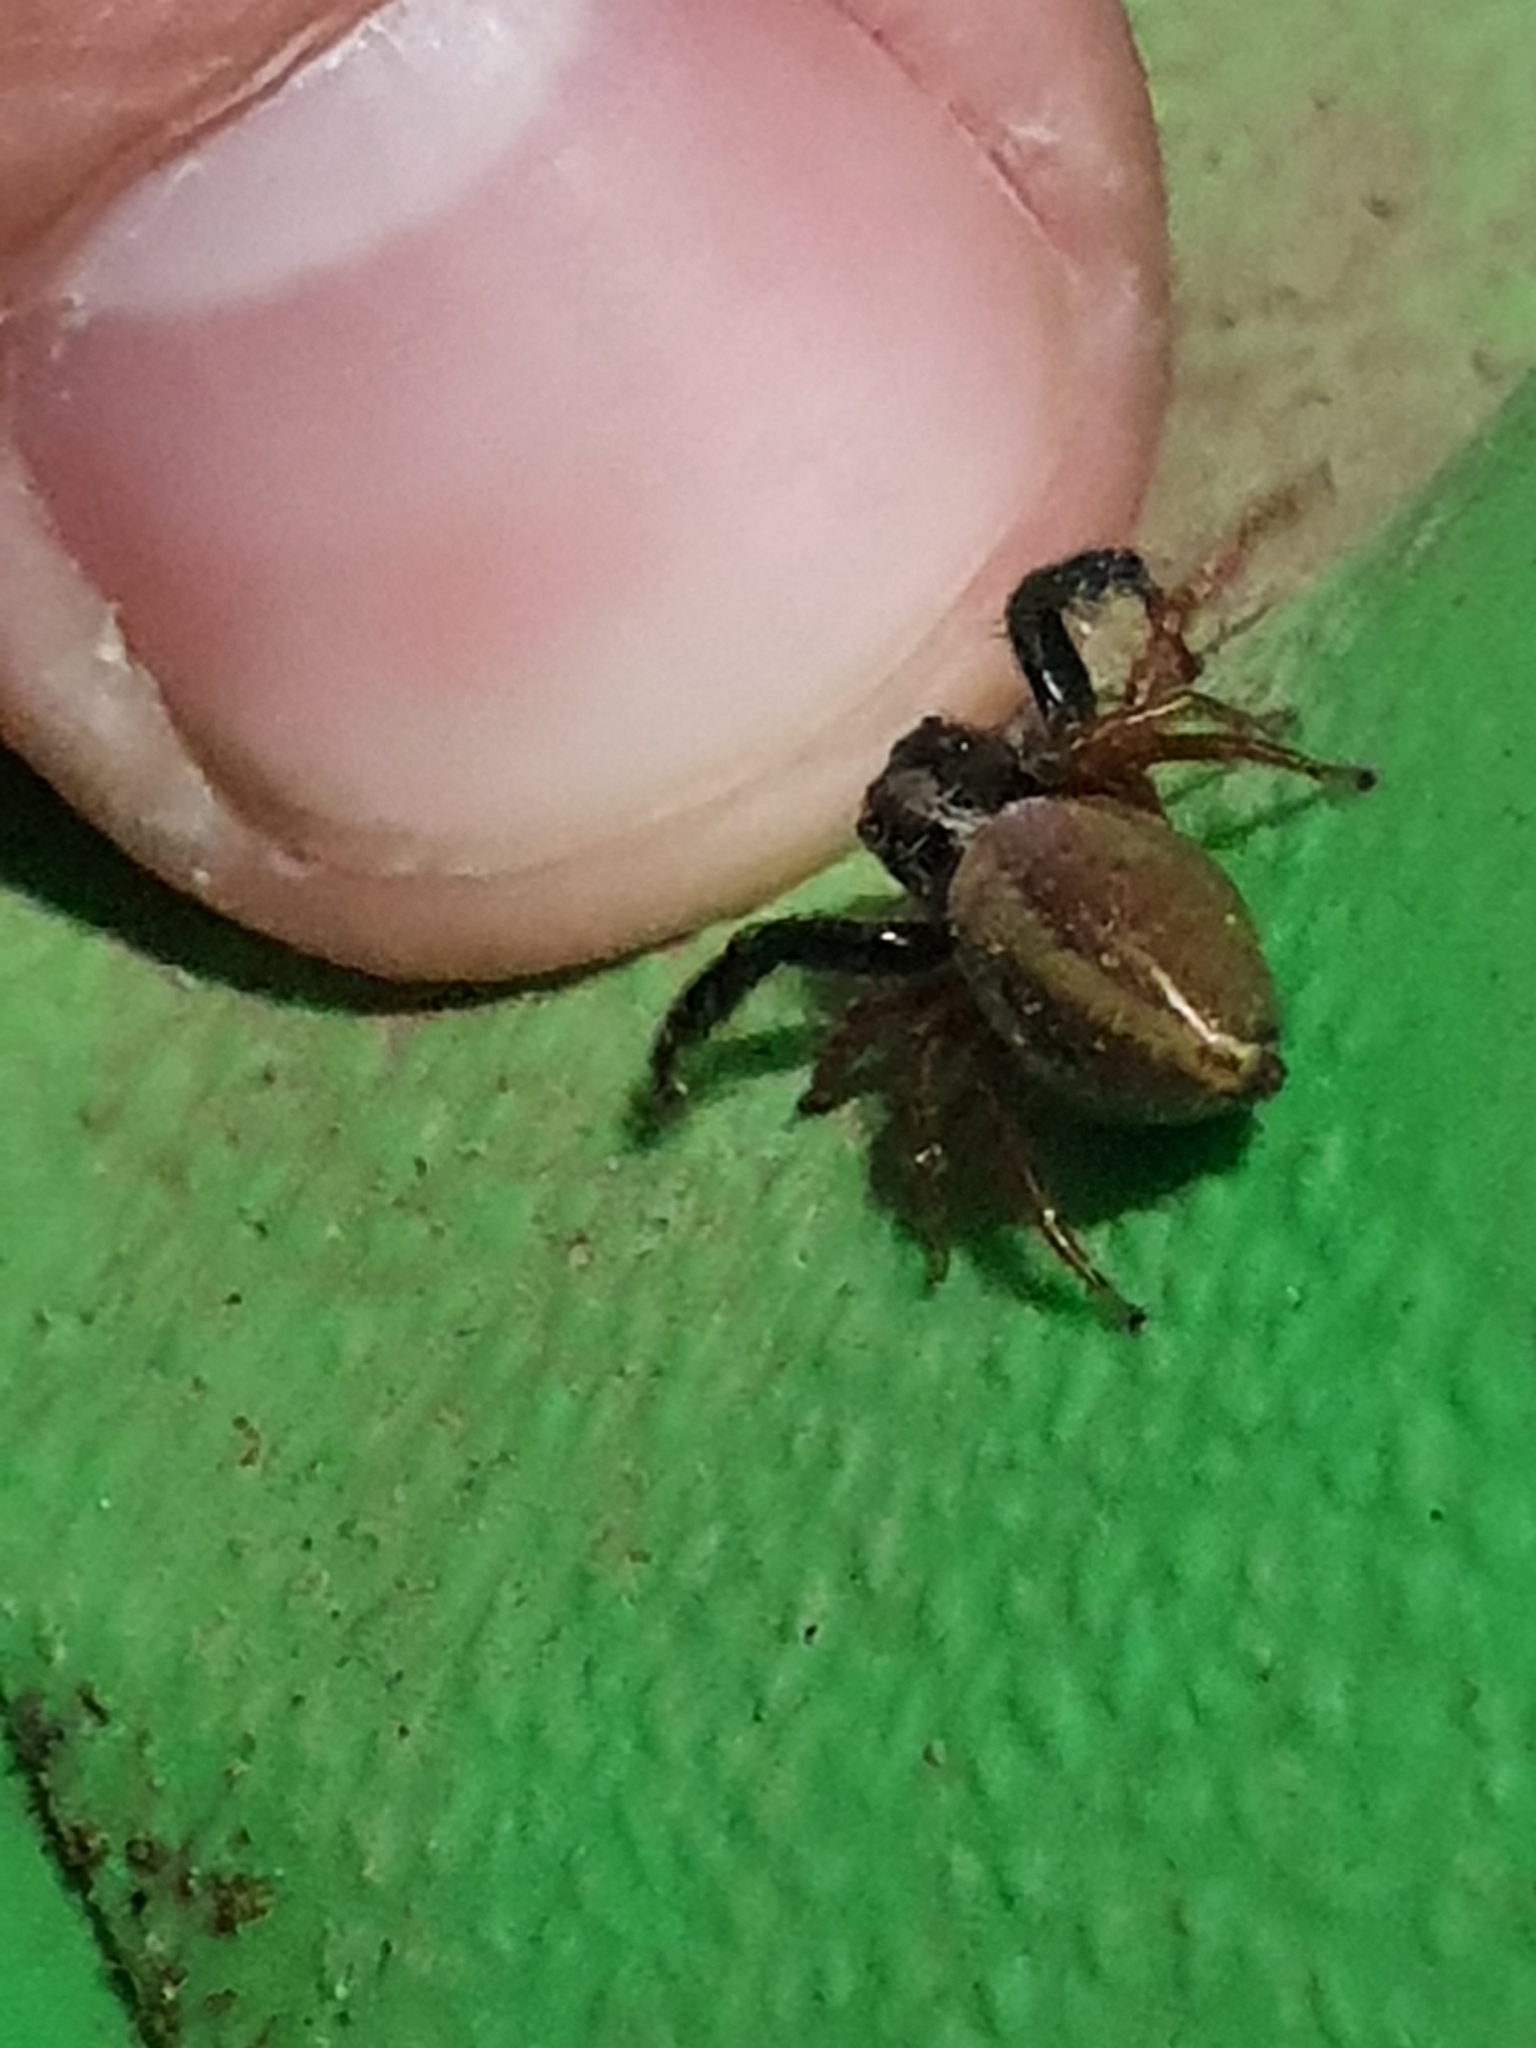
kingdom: Animalia
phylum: Arthropoda
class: Arachnida
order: Araneae
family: Salticidae
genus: Trite
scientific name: Trite planiceps
